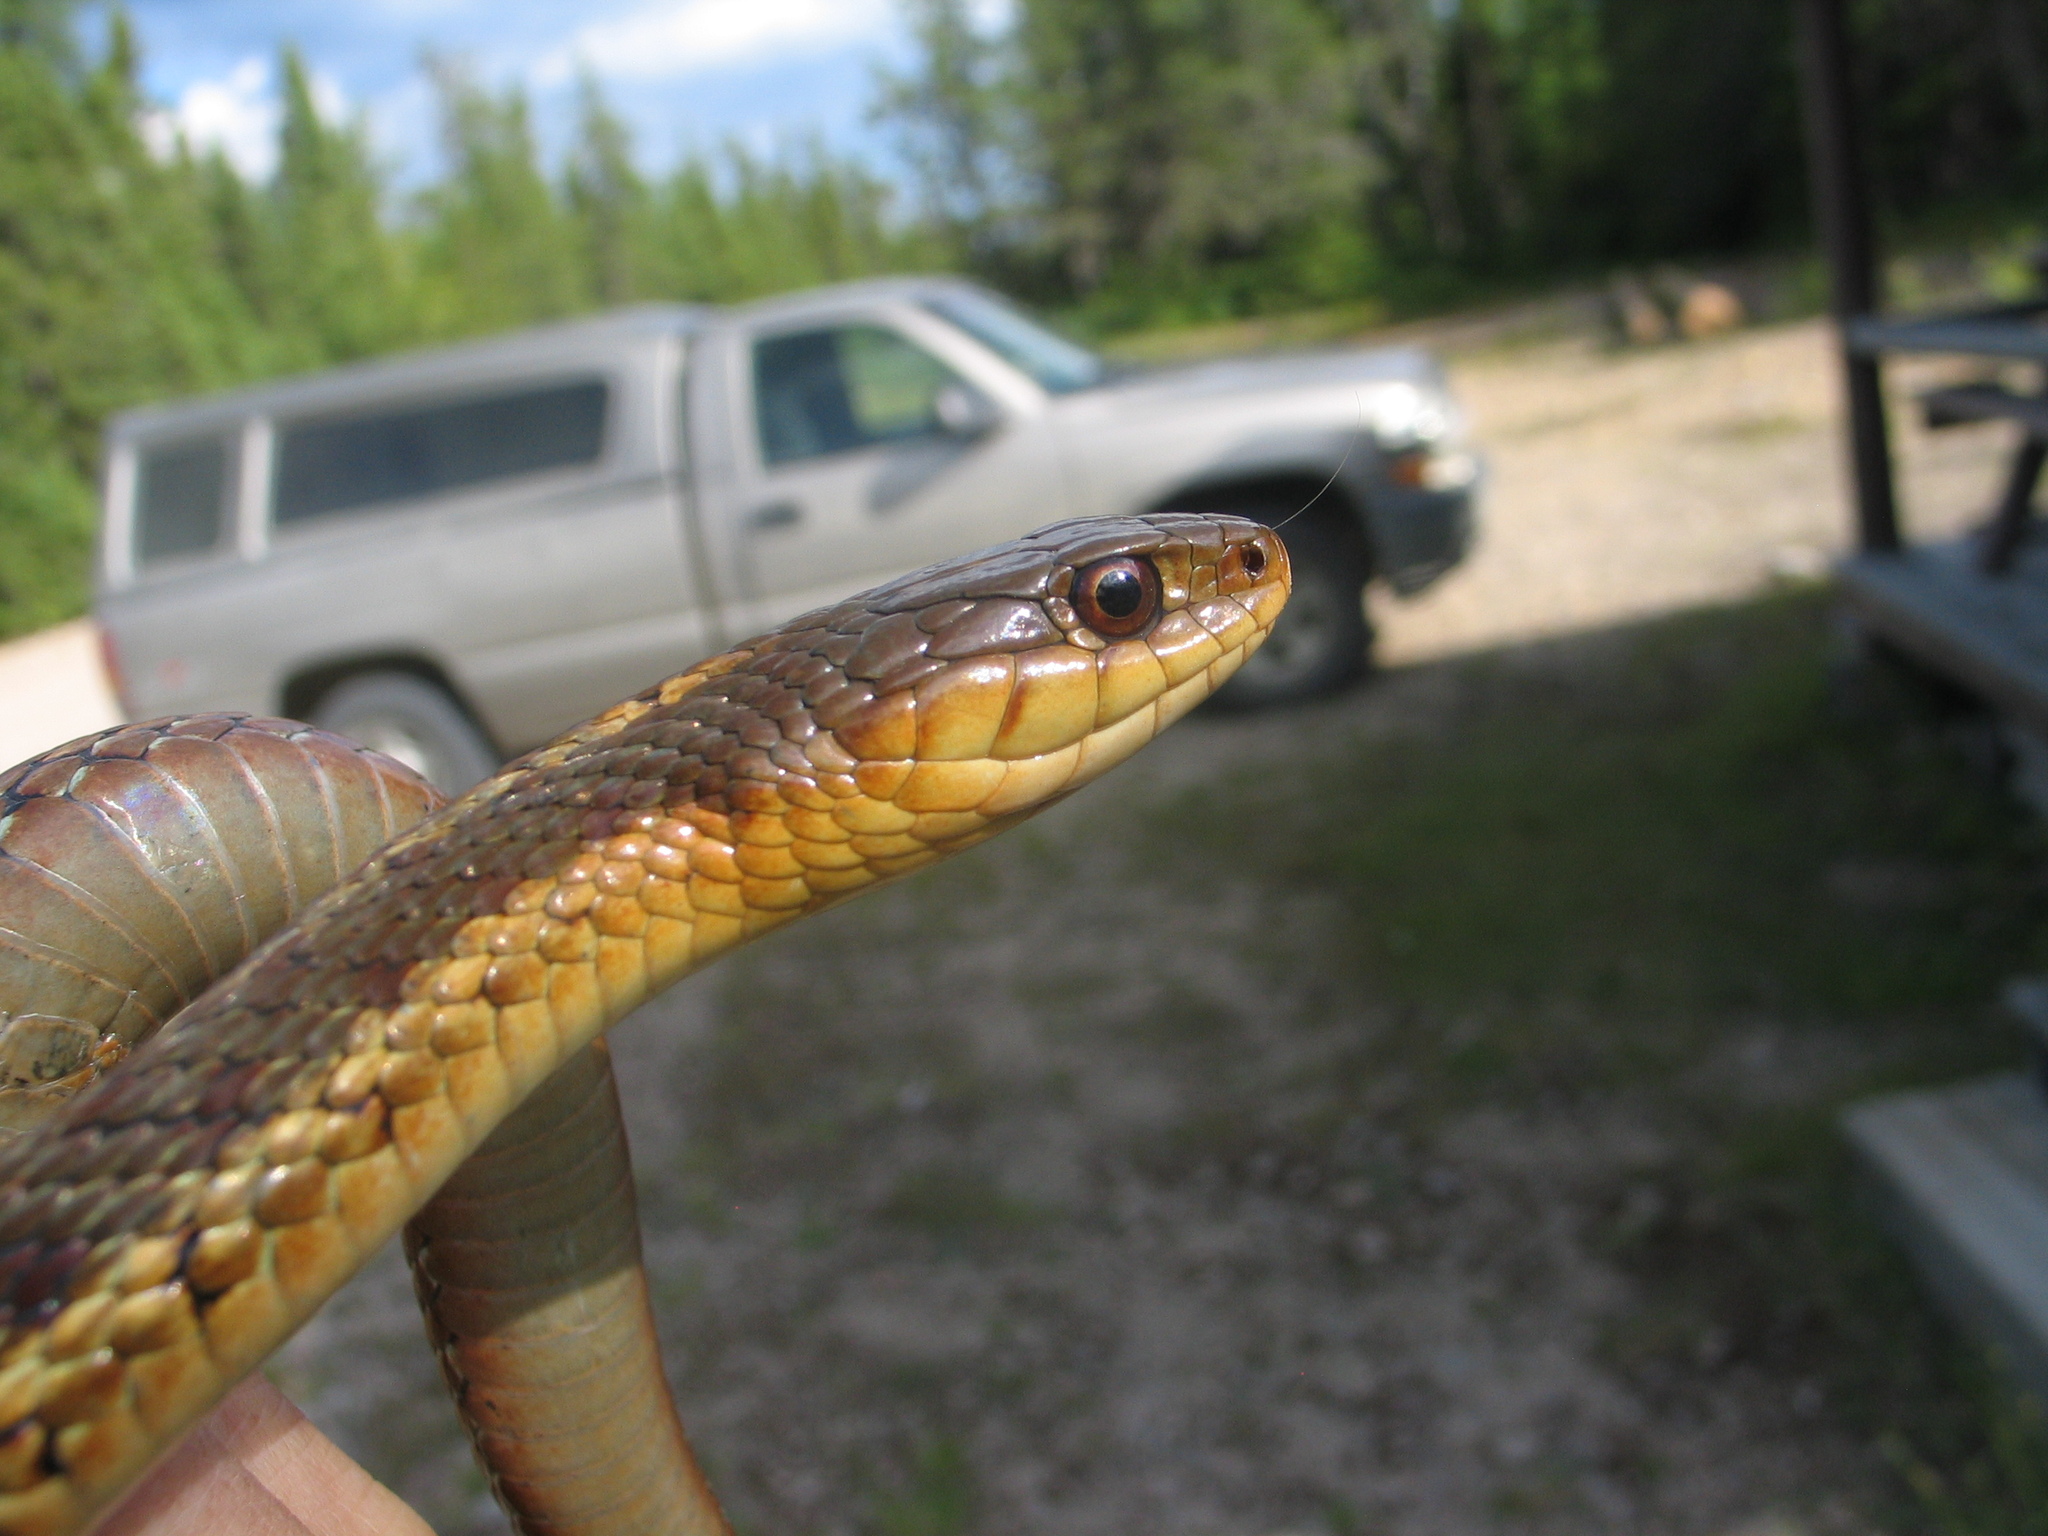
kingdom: Animalia
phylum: Chordata
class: Squamata
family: Colubridae
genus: Thamnophis
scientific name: Thamnophis sirtalis
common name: Common garter snake
